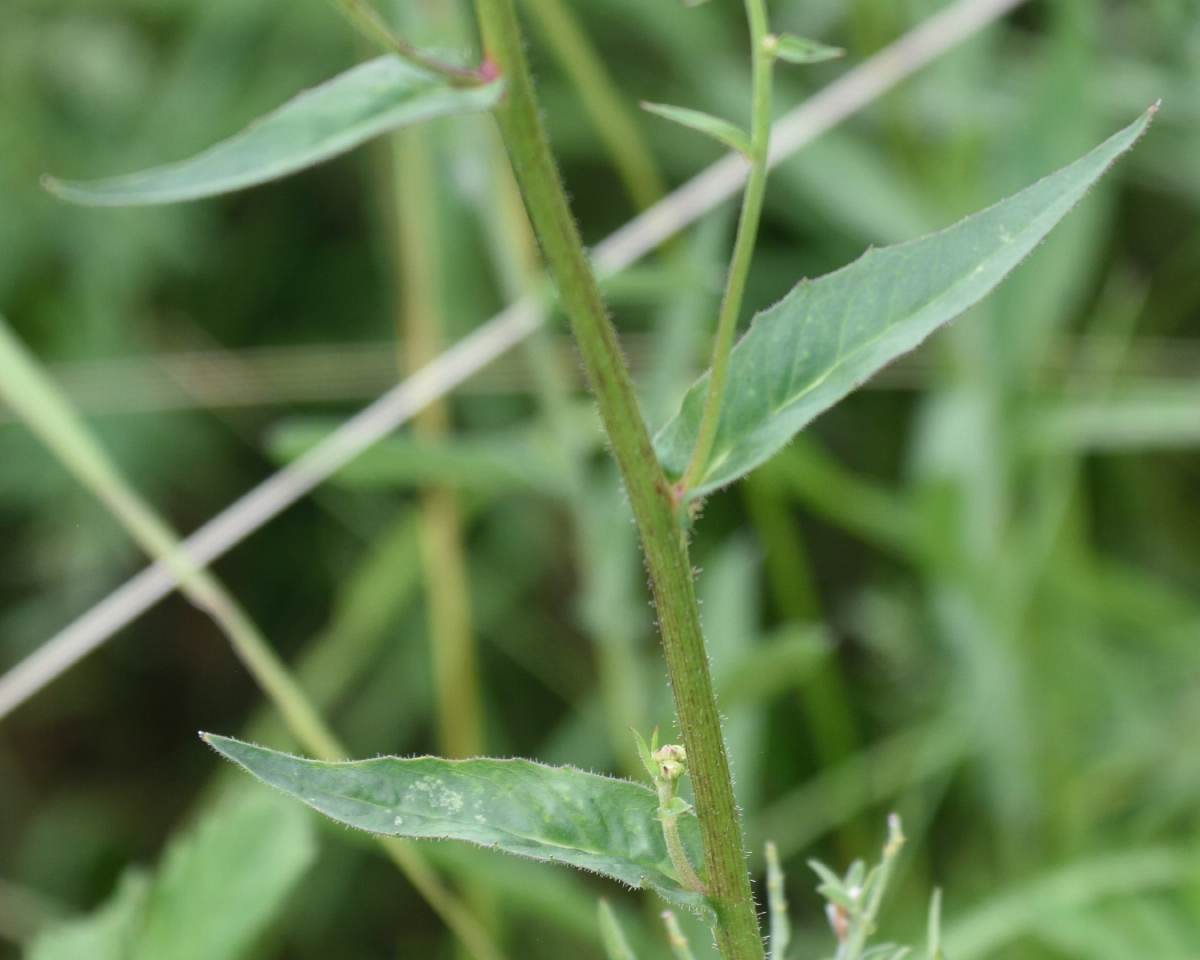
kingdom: Plantae
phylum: Tracheophyta
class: Magnoliopsida
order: Asterales
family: Asteraceae
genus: Picris
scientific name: Picris hieracioides
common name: Hawkweed oxtongue
